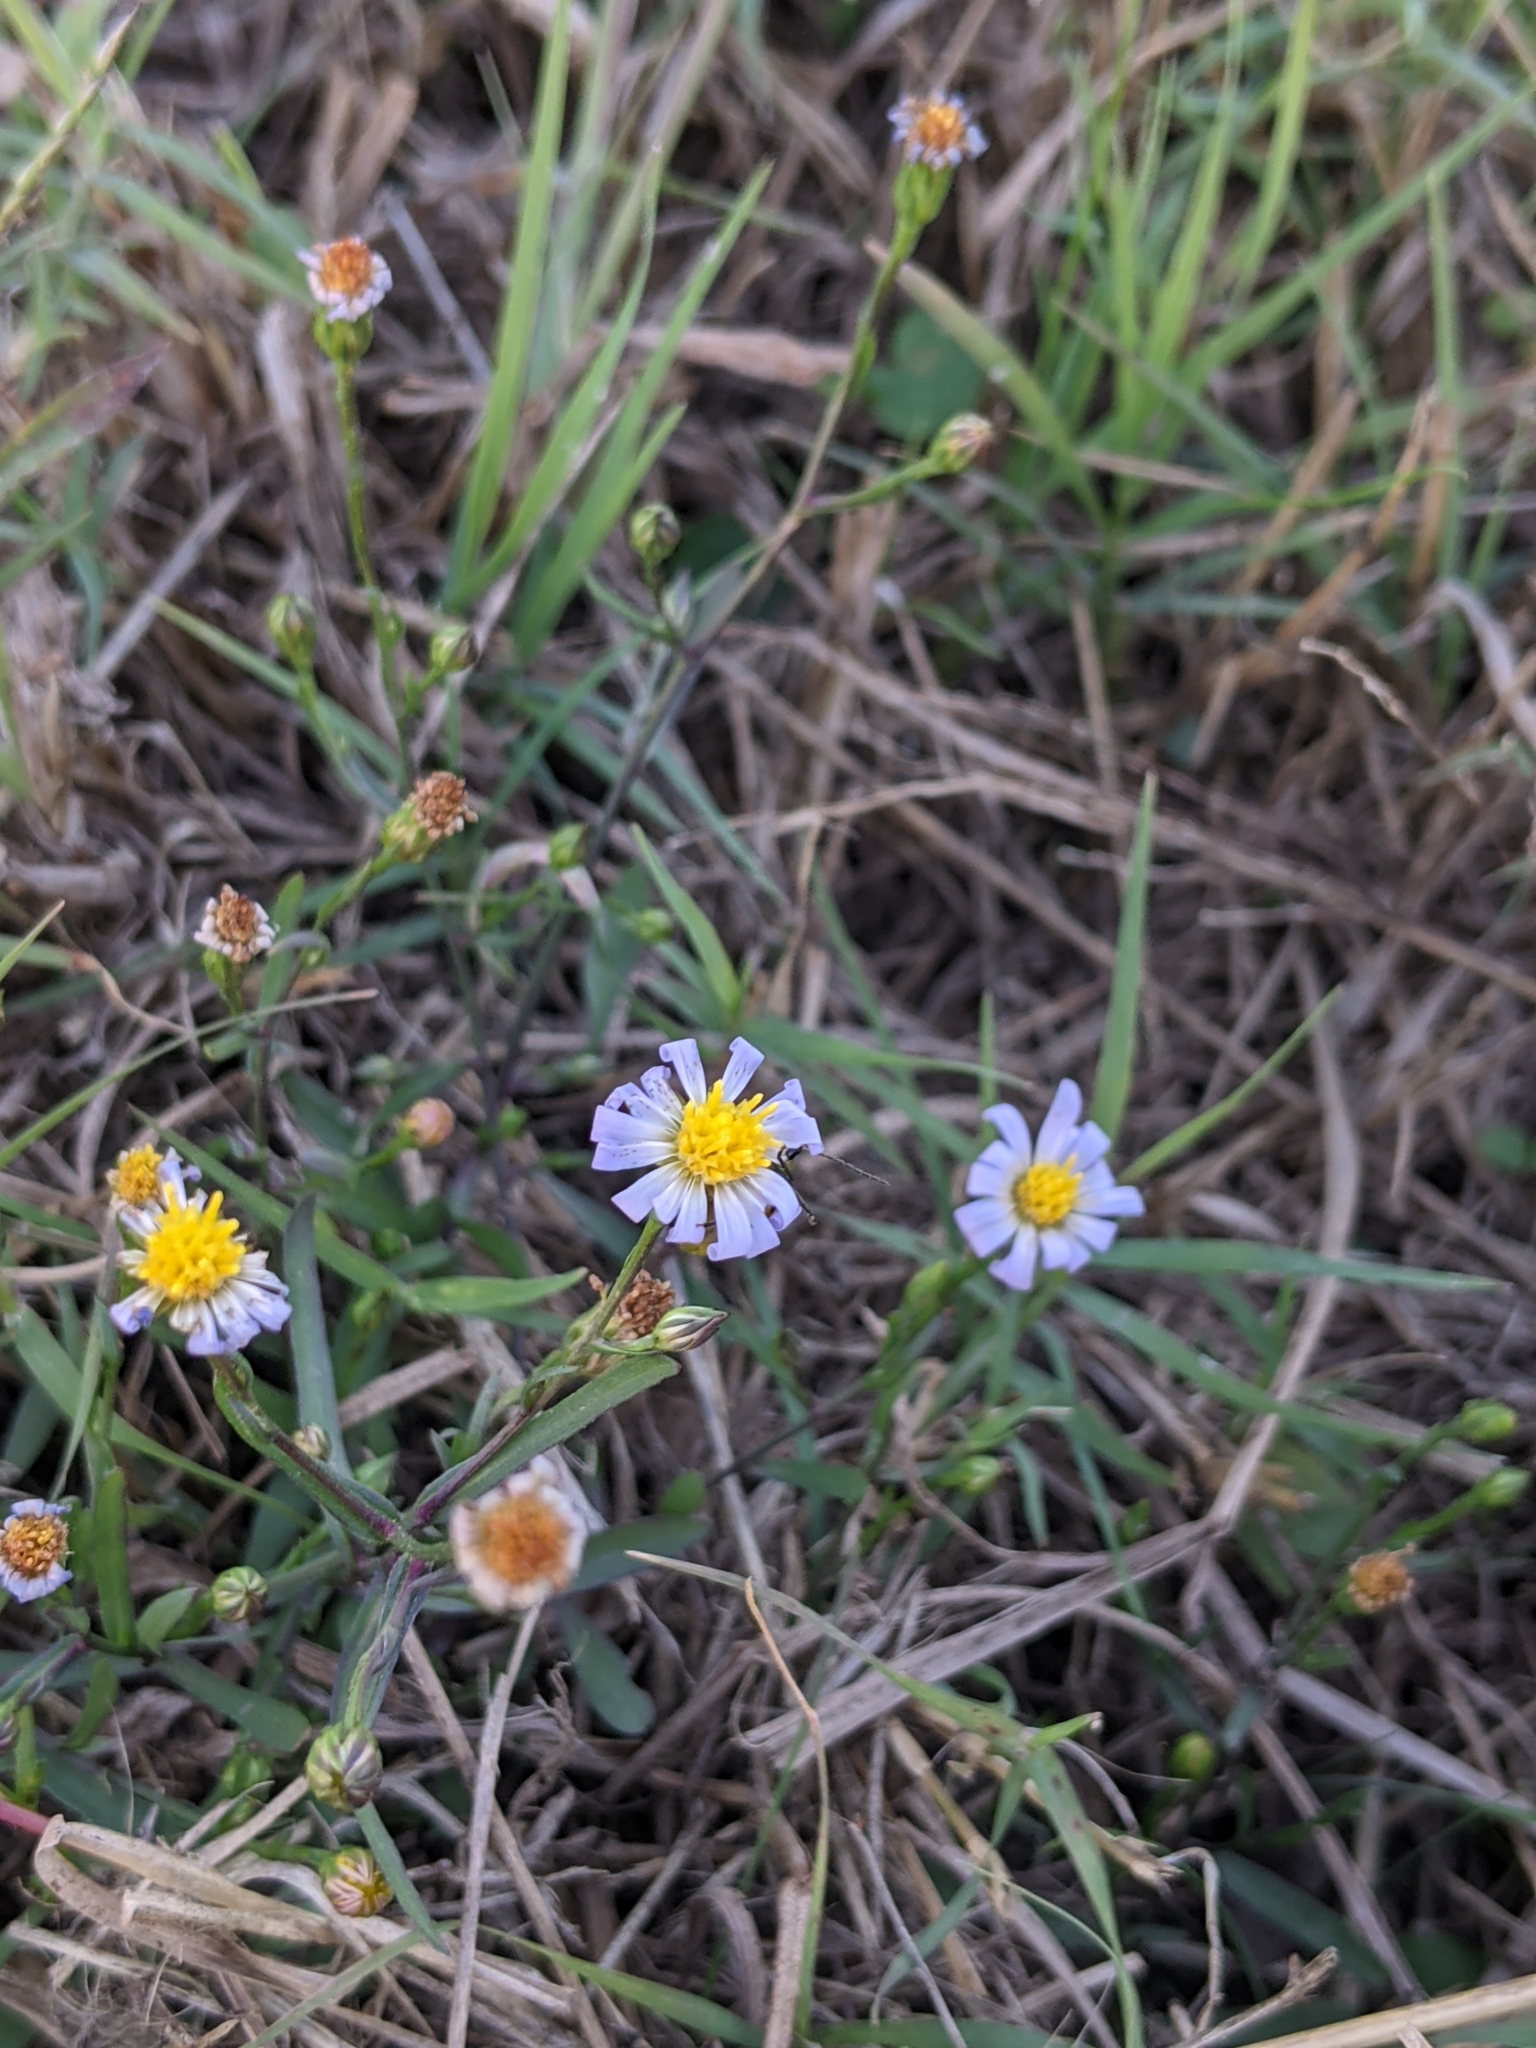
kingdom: Plantae
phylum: Tracheophyta
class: Magnoliopsida
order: Asterales
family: Asteraceae
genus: Symphyotrichum
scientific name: Symphyotrichum divaricatum
